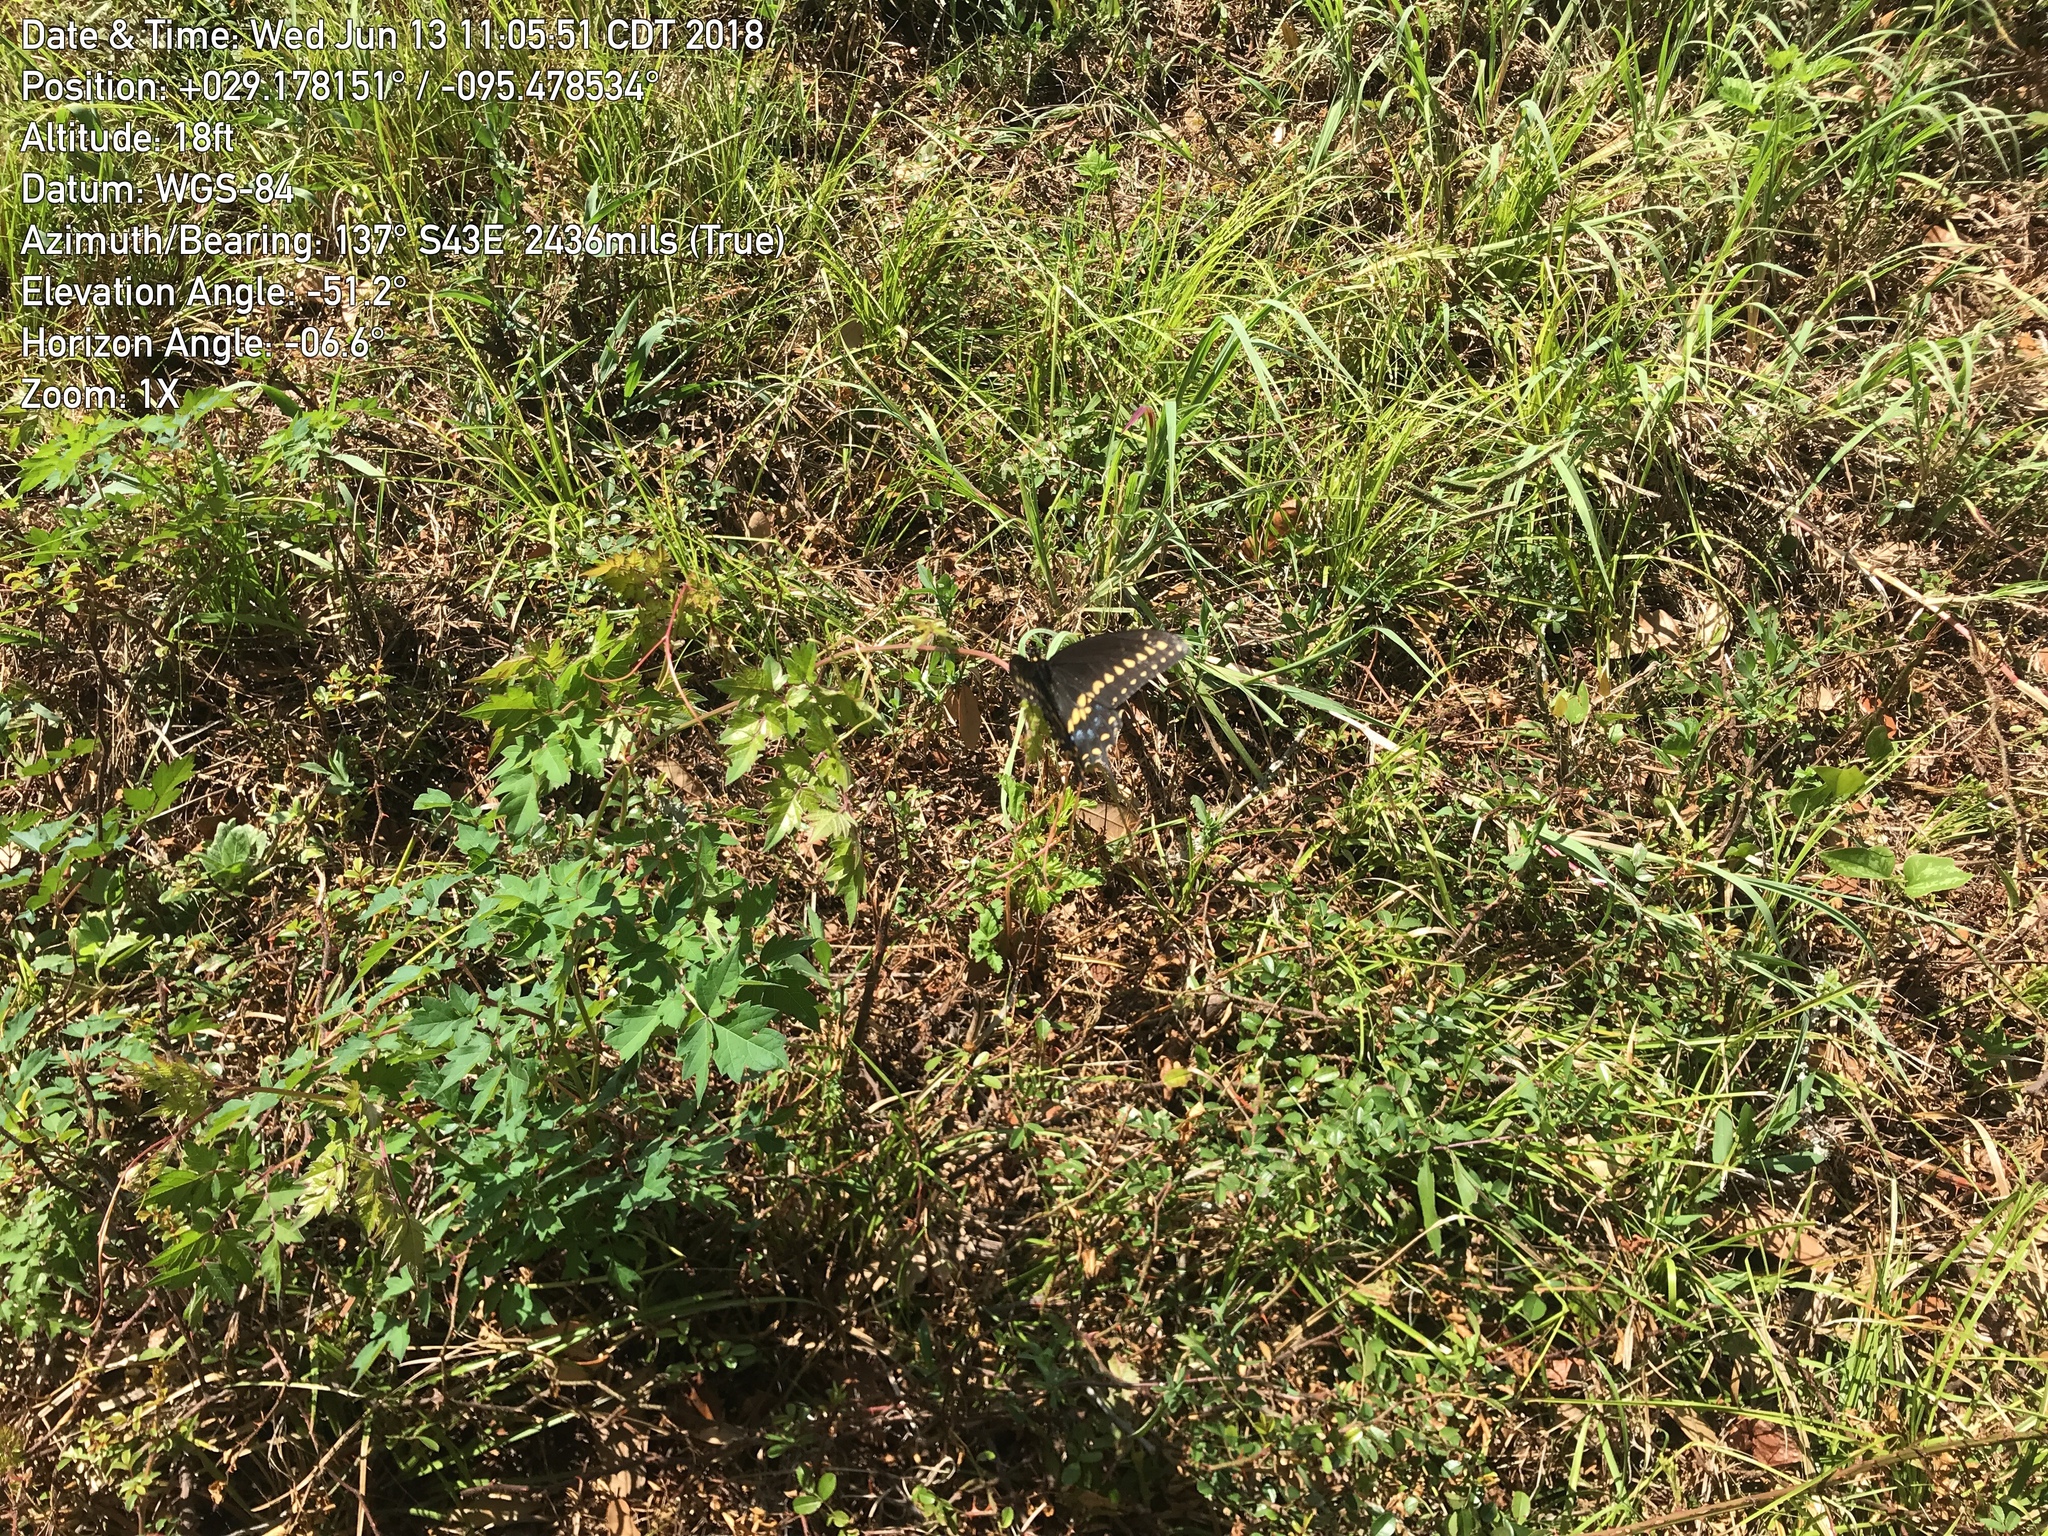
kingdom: Animalia
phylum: Arthropoda
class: Insecta
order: Lepidoptera
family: Papilionidae
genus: Papilio
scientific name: Papilio polyxenes
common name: Black swallowtail
